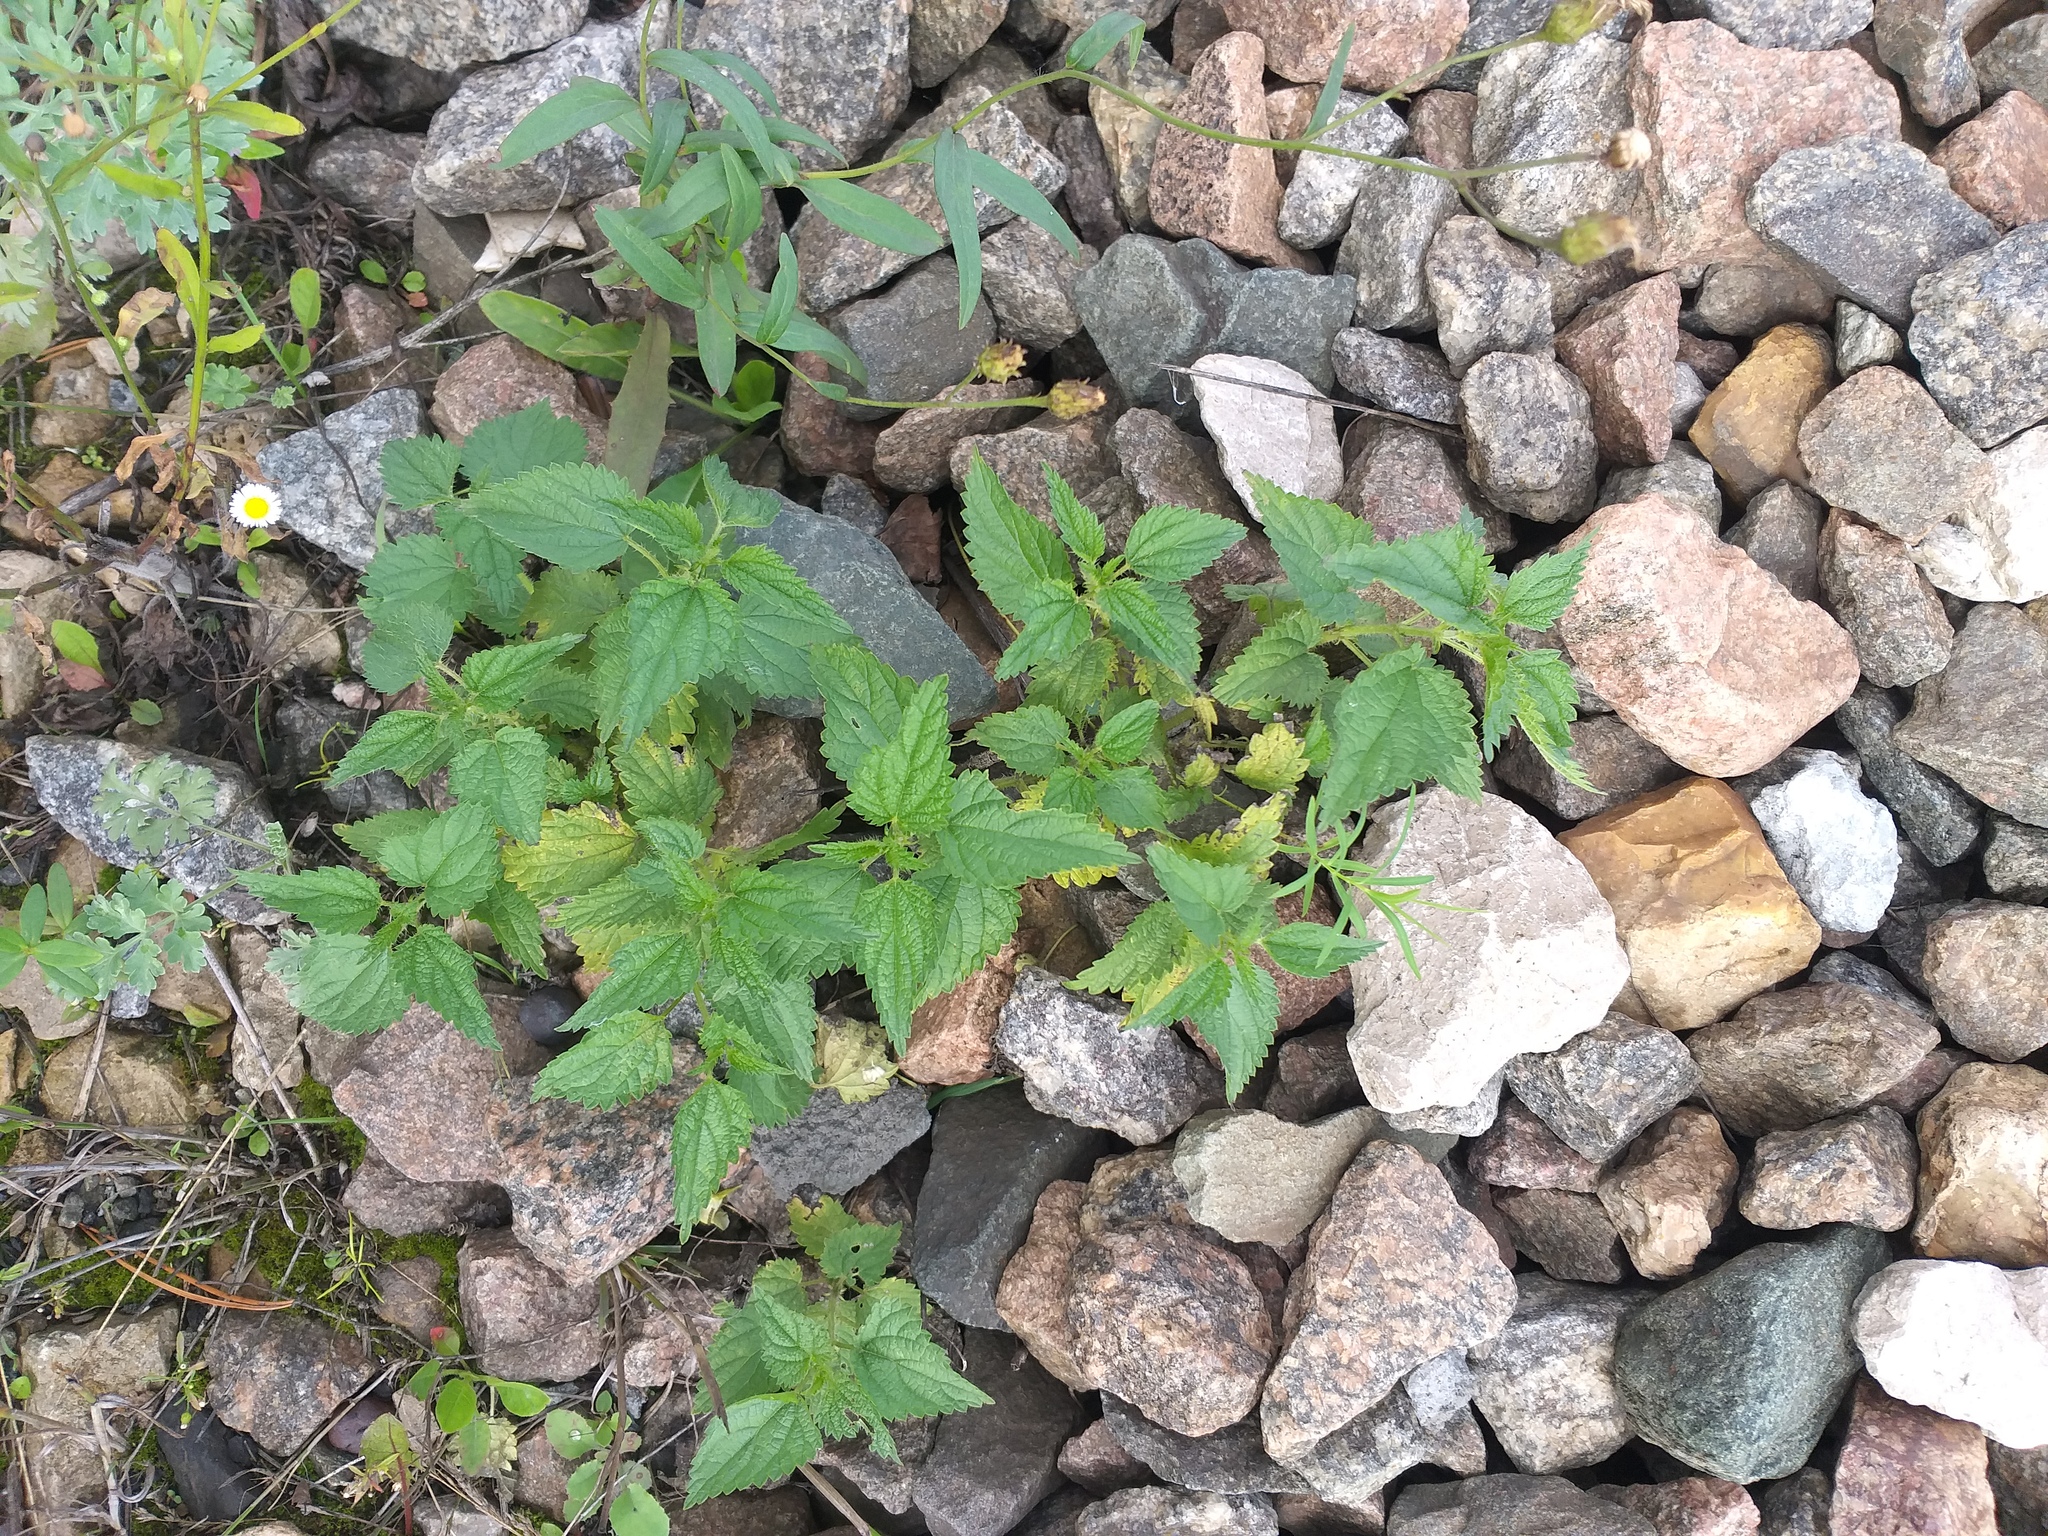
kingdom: Plantae
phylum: Tracheophyta
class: Magnoliopsida
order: Rosales
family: Urticaceae
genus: Urtica
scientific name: Urtica dioica
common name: Common nettle
